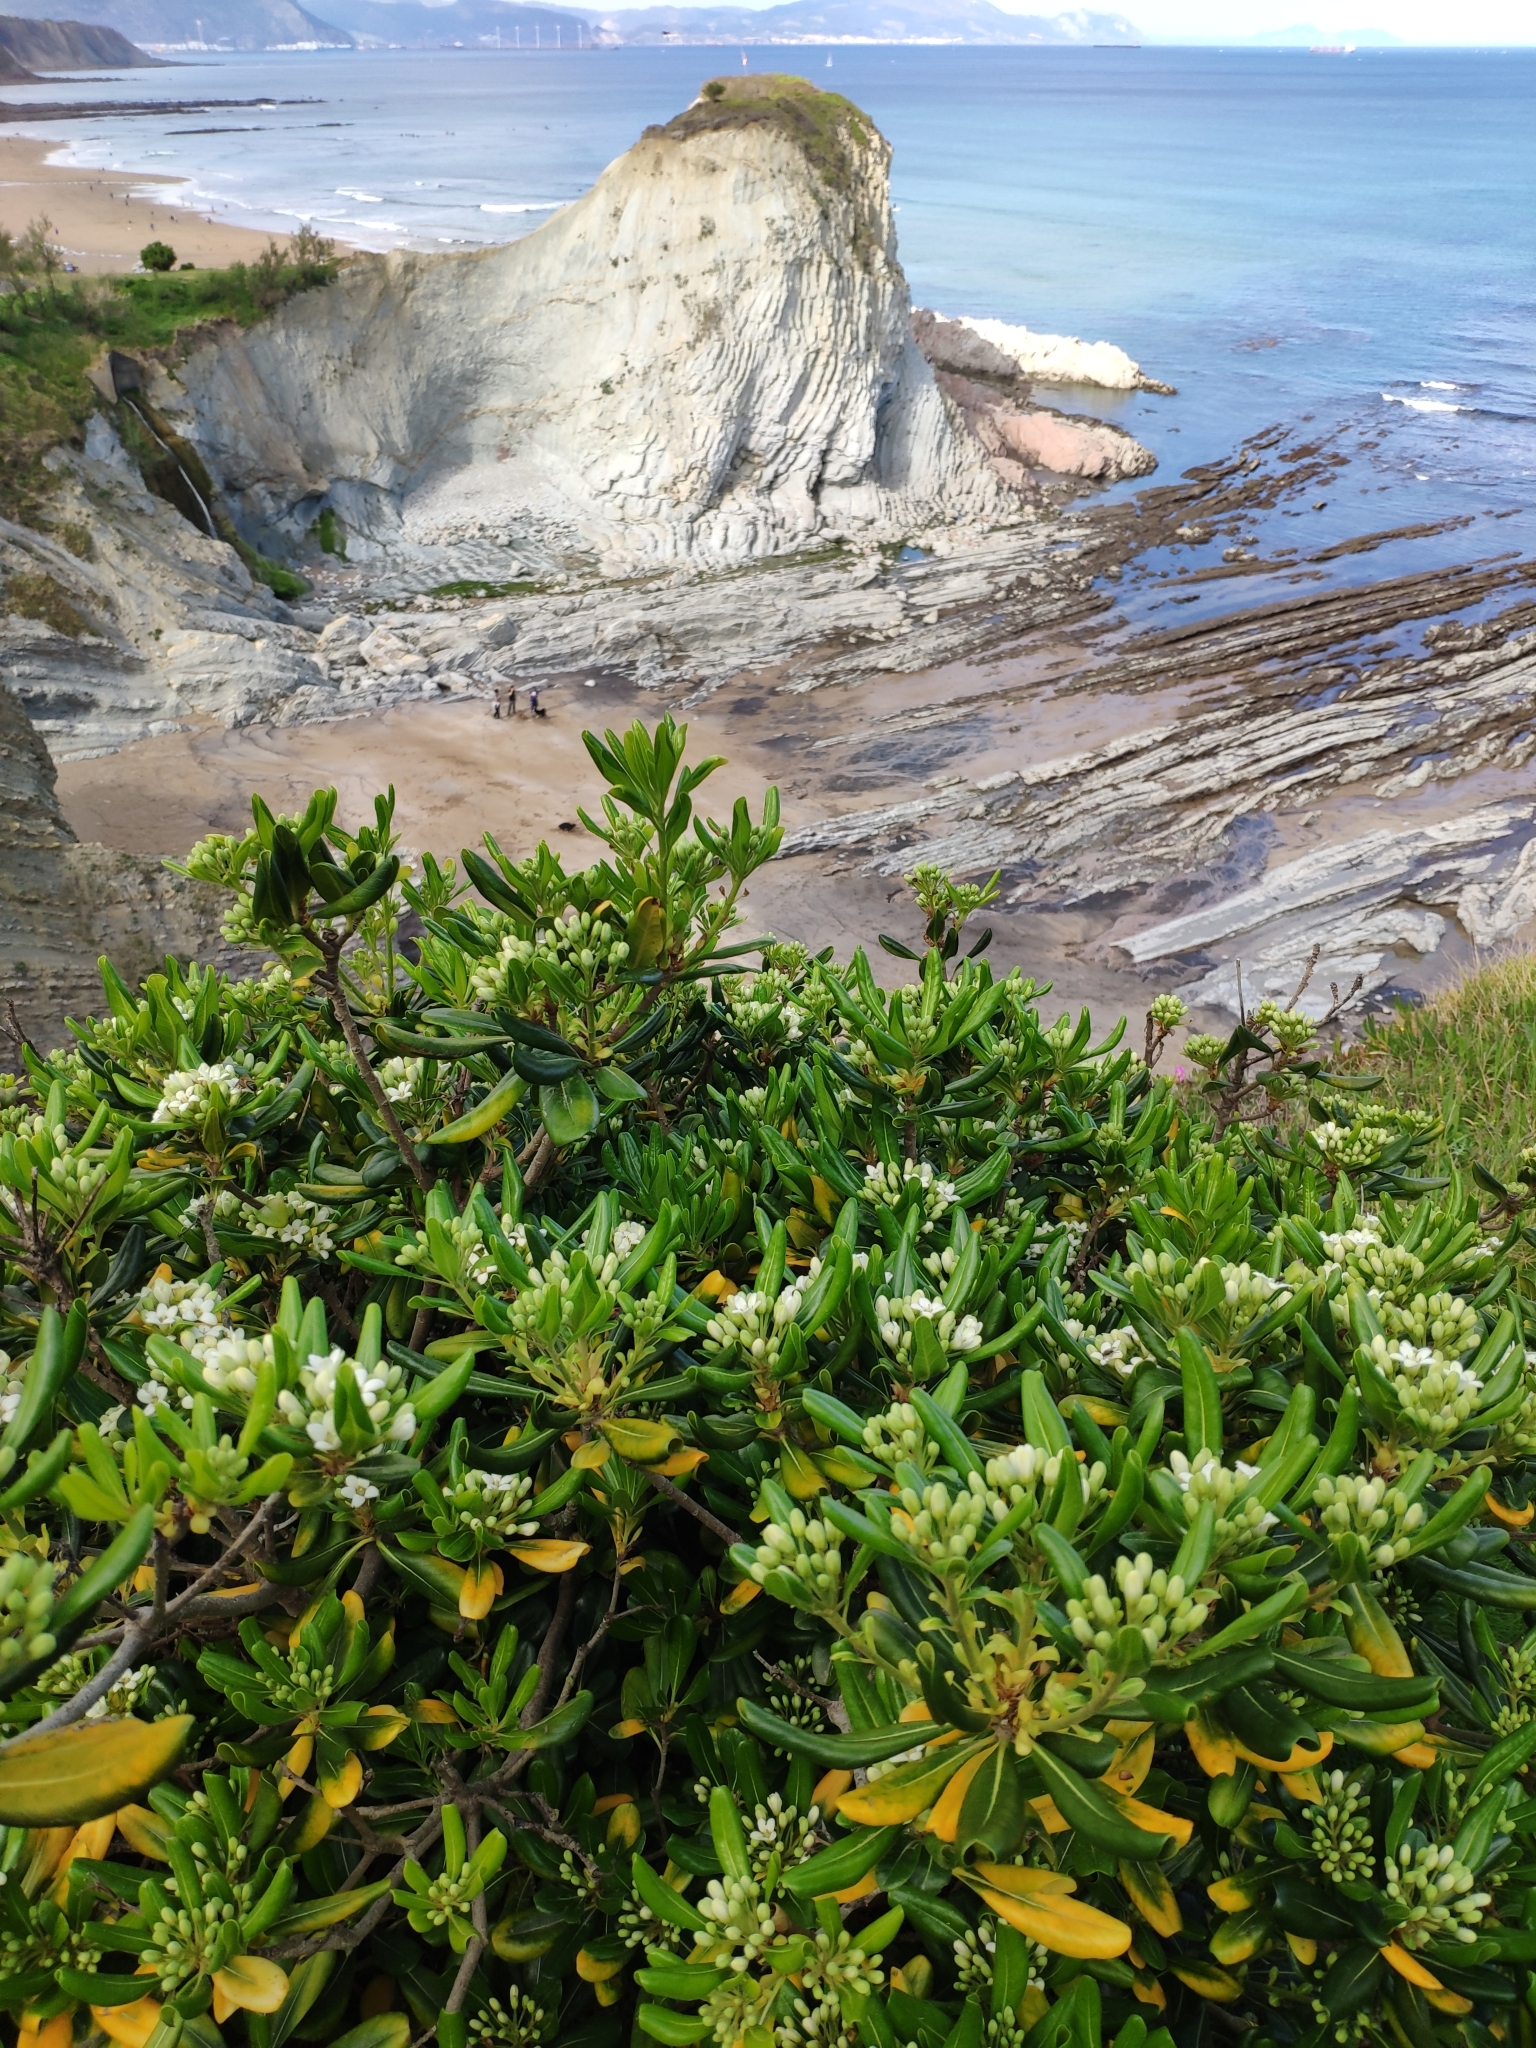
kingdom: Plantae
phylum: Tracheophyta
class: Magnoliopsida
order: Apiales
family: Pittosporaceae
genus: Pittosporum
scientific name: Pittosporum tobira
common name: Japanese cheesewood
